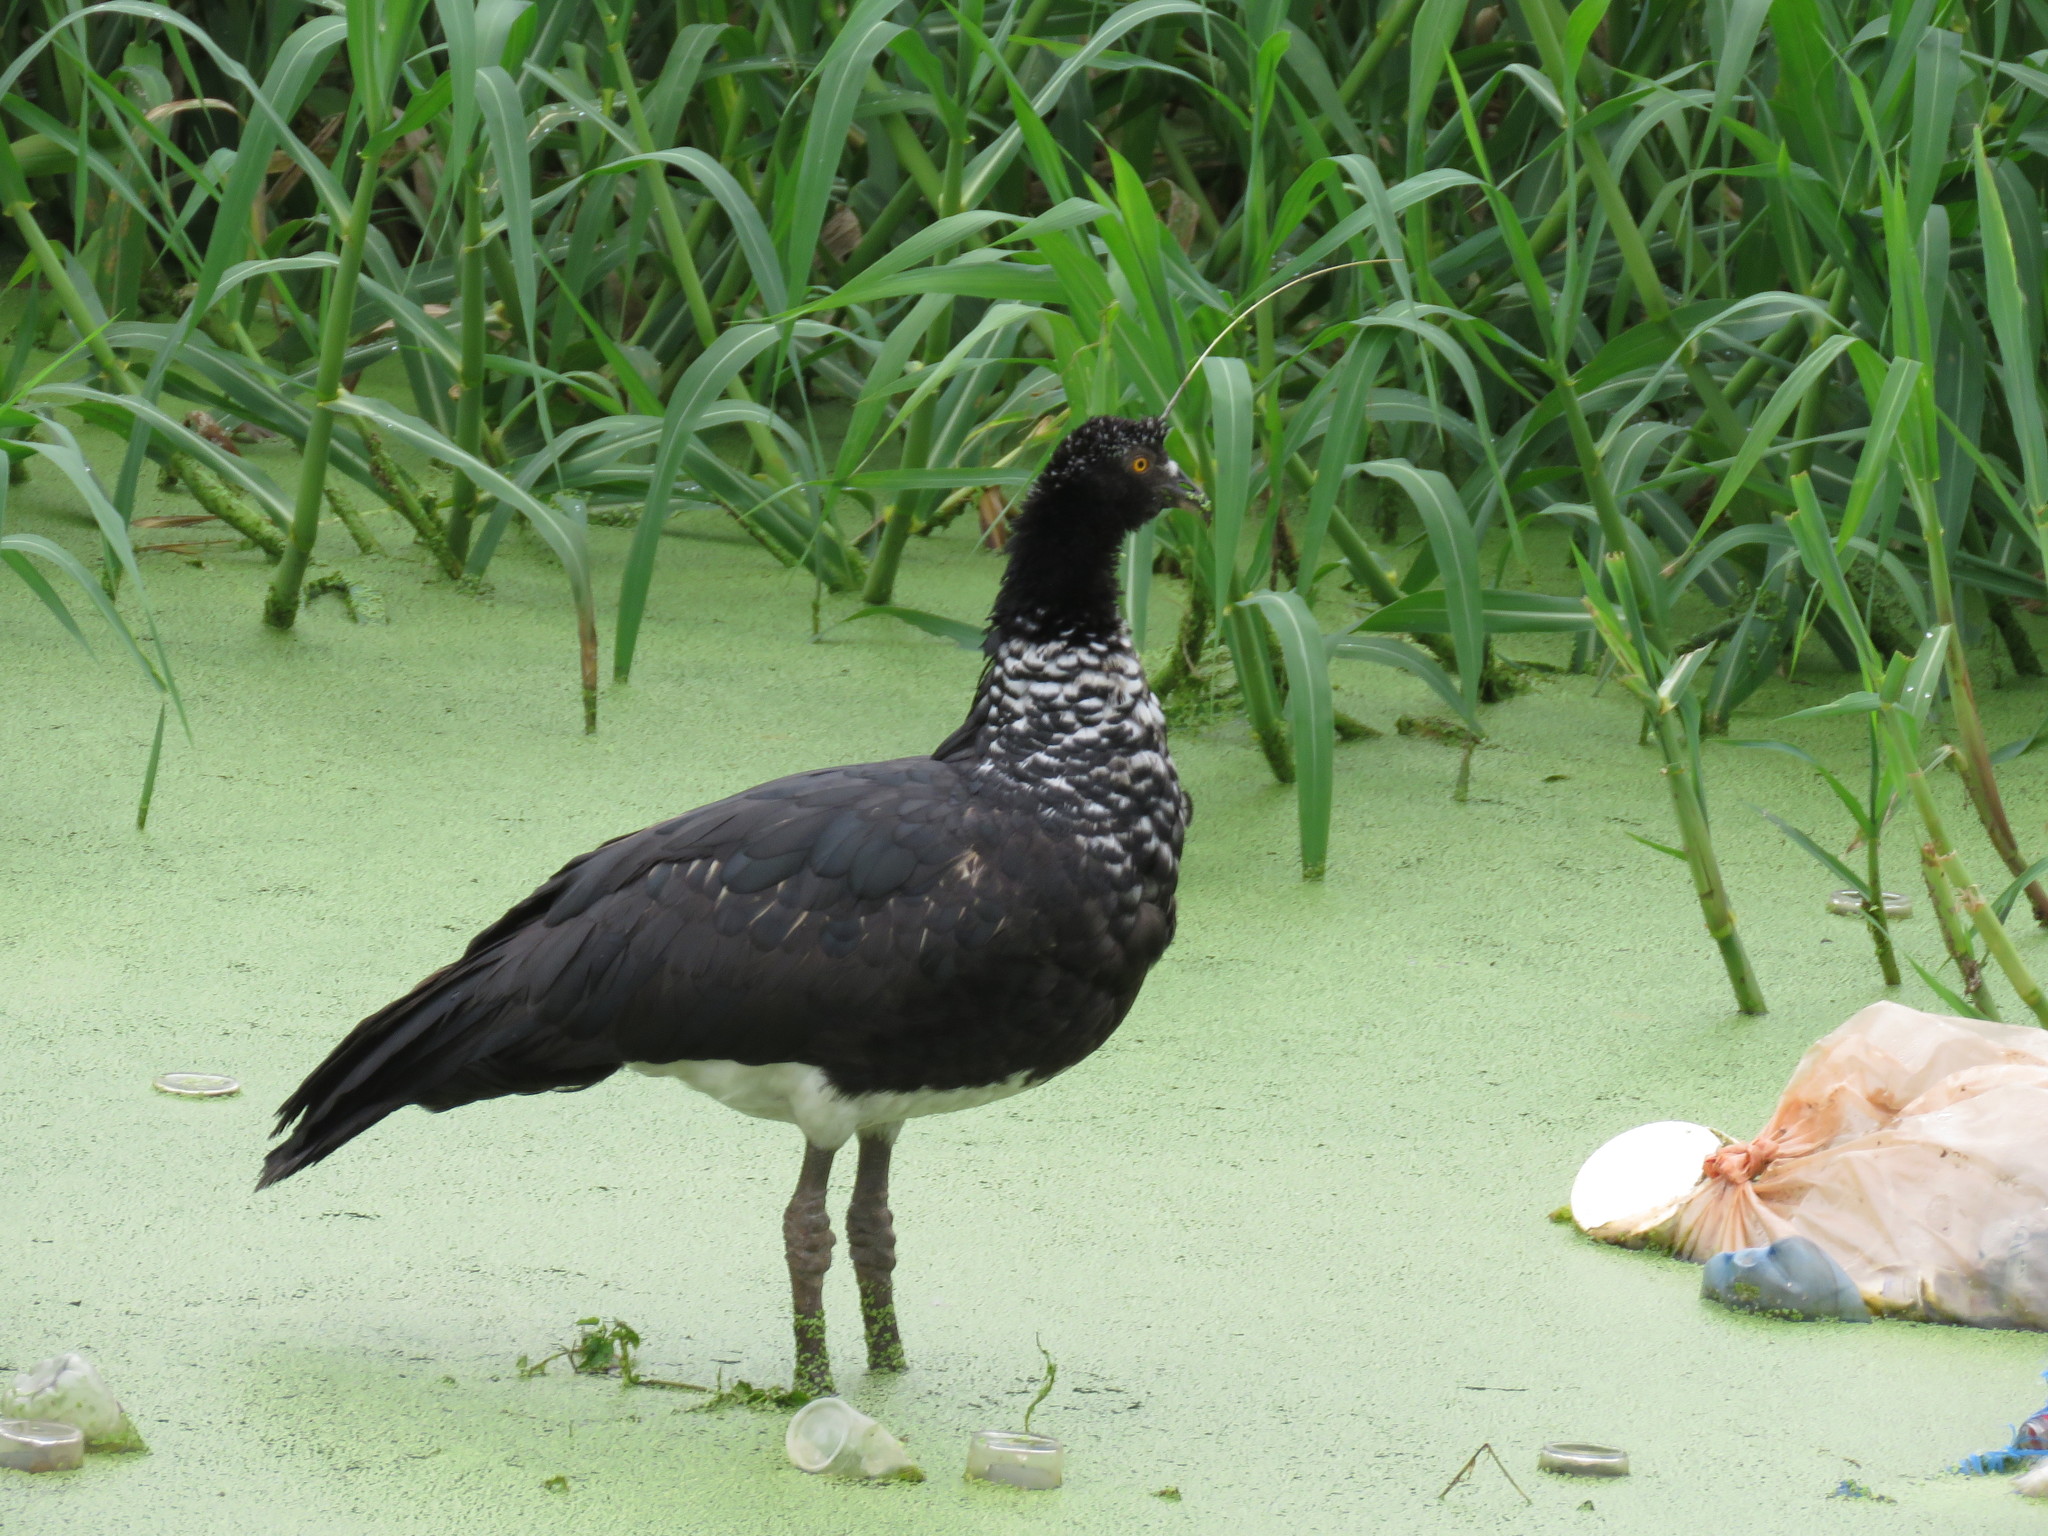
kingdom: Animalia
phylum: Chordata
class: Aves
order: Anseriformes
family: Anhimidae
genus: Anhima
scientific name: Anhima cornuta
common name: Horned screamer
